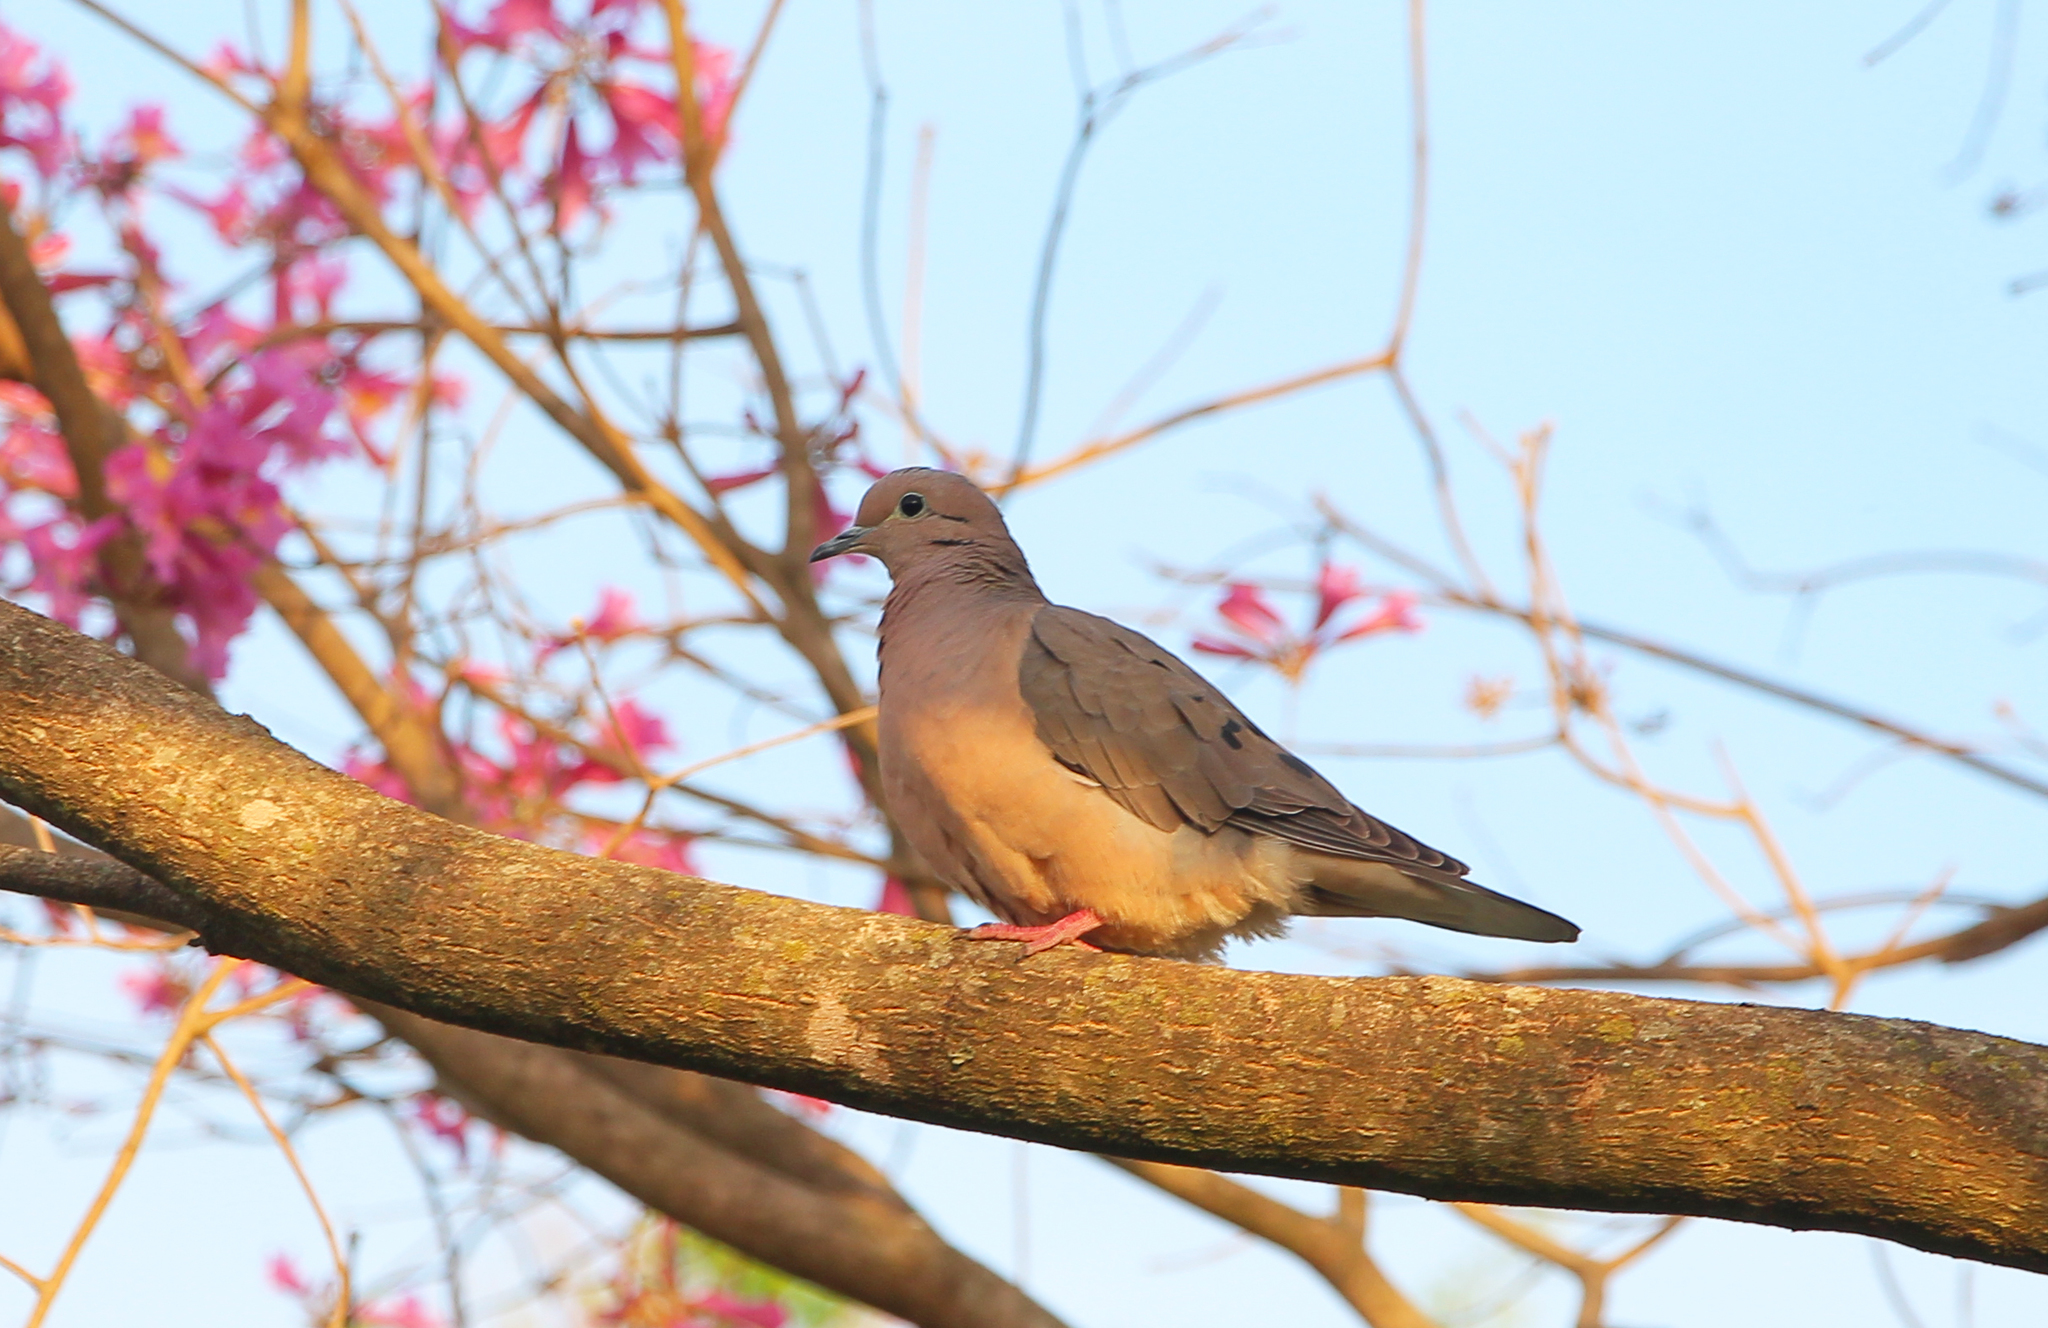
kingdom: Animalia
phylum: Chordata
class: Aves
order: Columbiformes
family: Columbidae
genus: Zenaida
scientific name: Zenaida auriculata
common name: Eared dove
